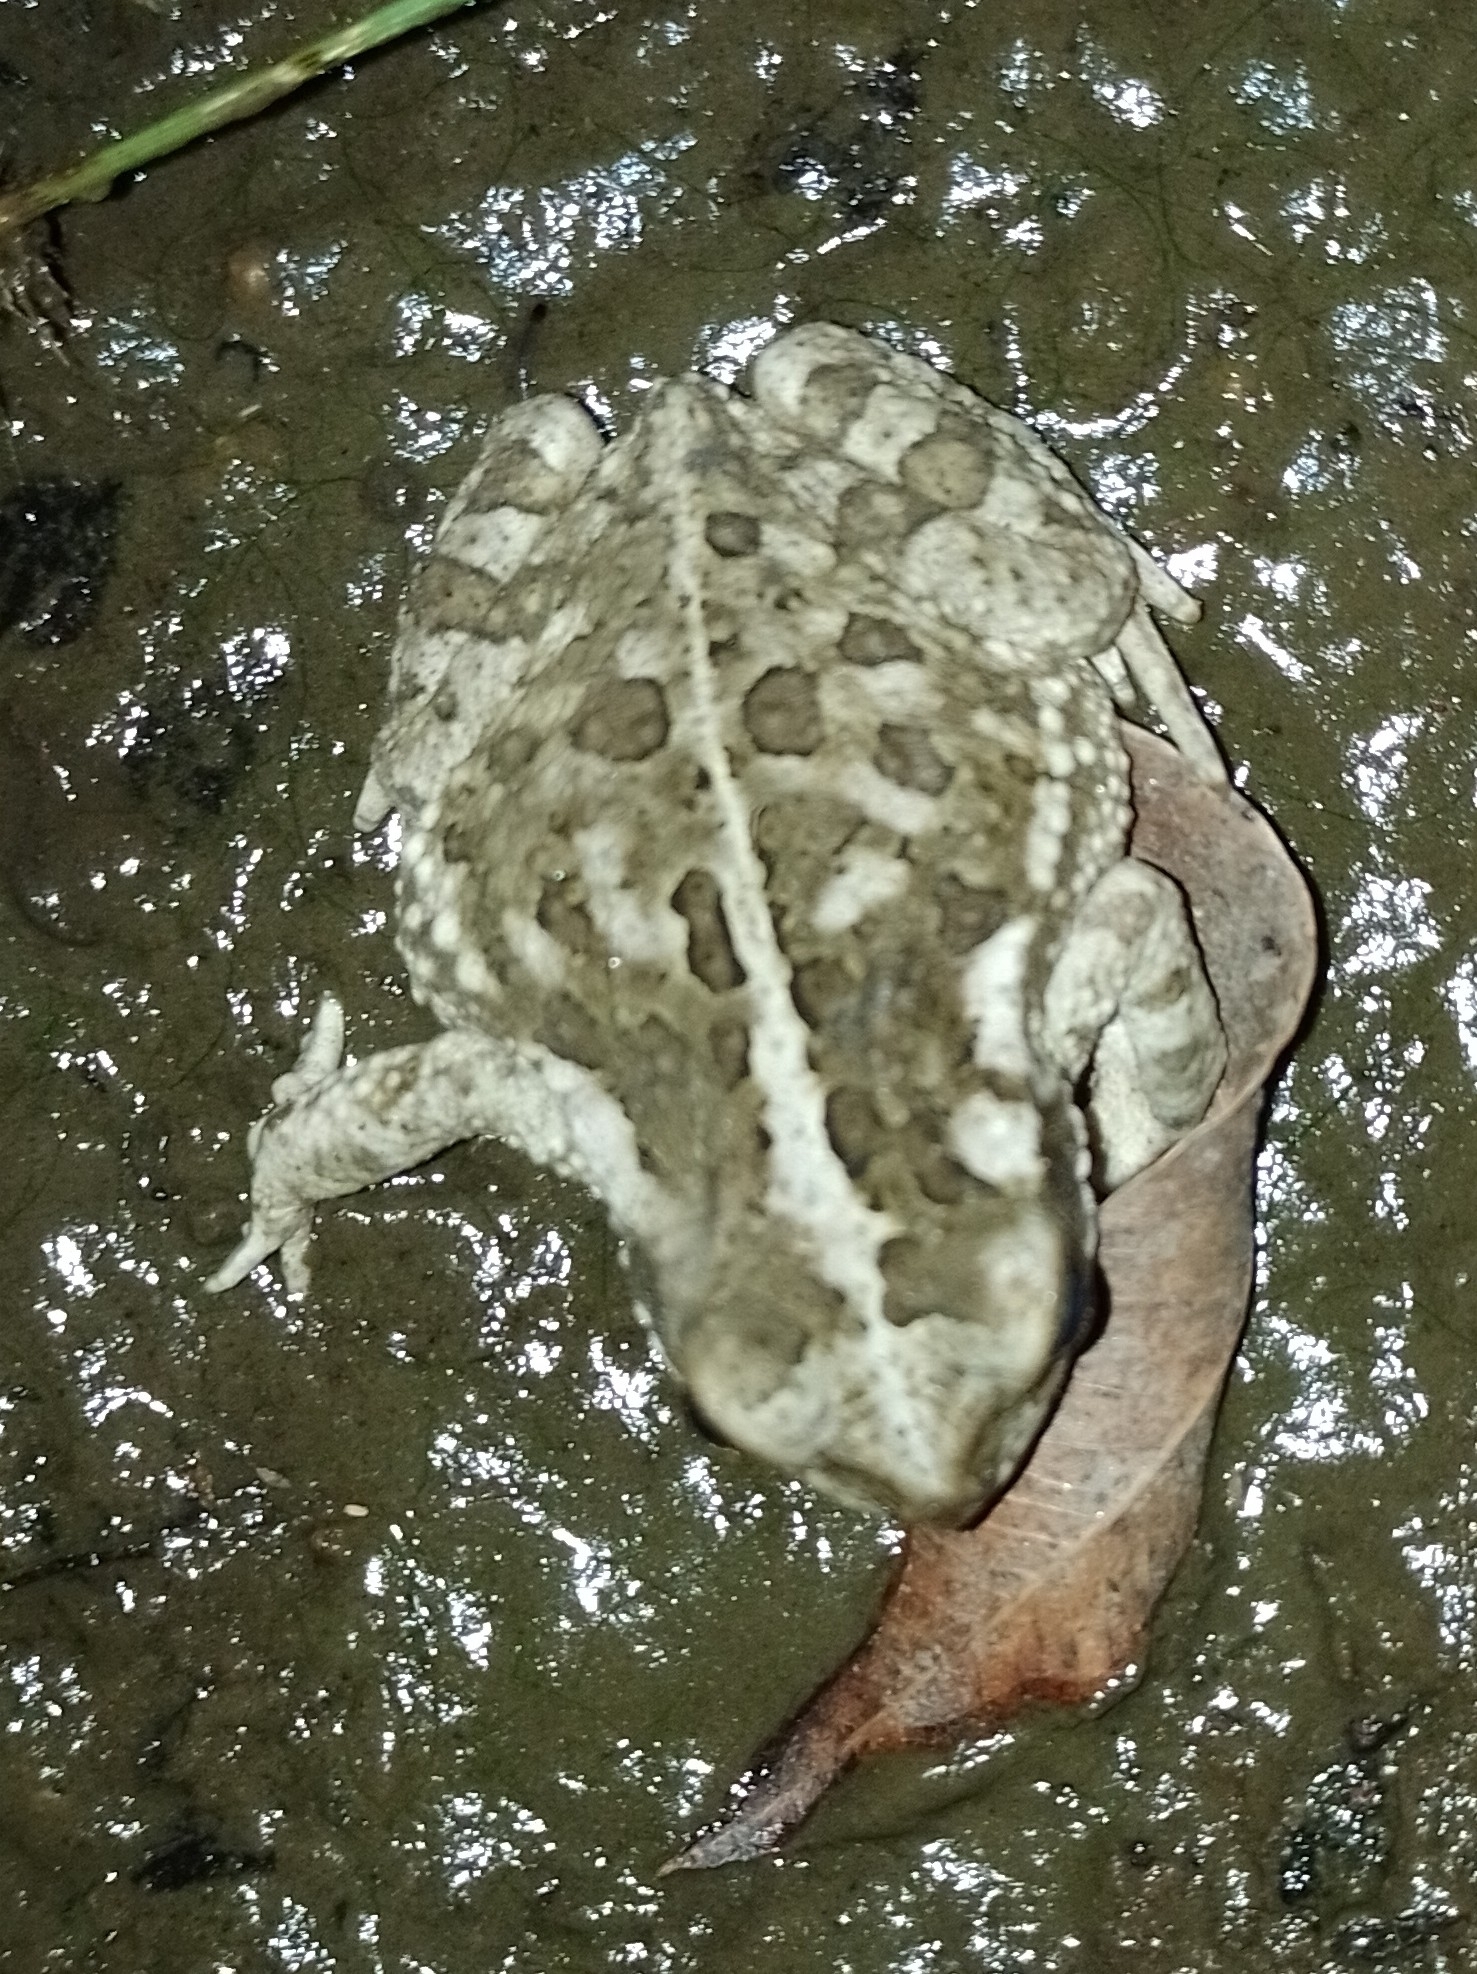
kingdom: Animalia
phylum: Chordata
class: Amphibia
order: Anura
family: Bufonidae
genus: Rhinella
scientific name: Rhinella arenarum
